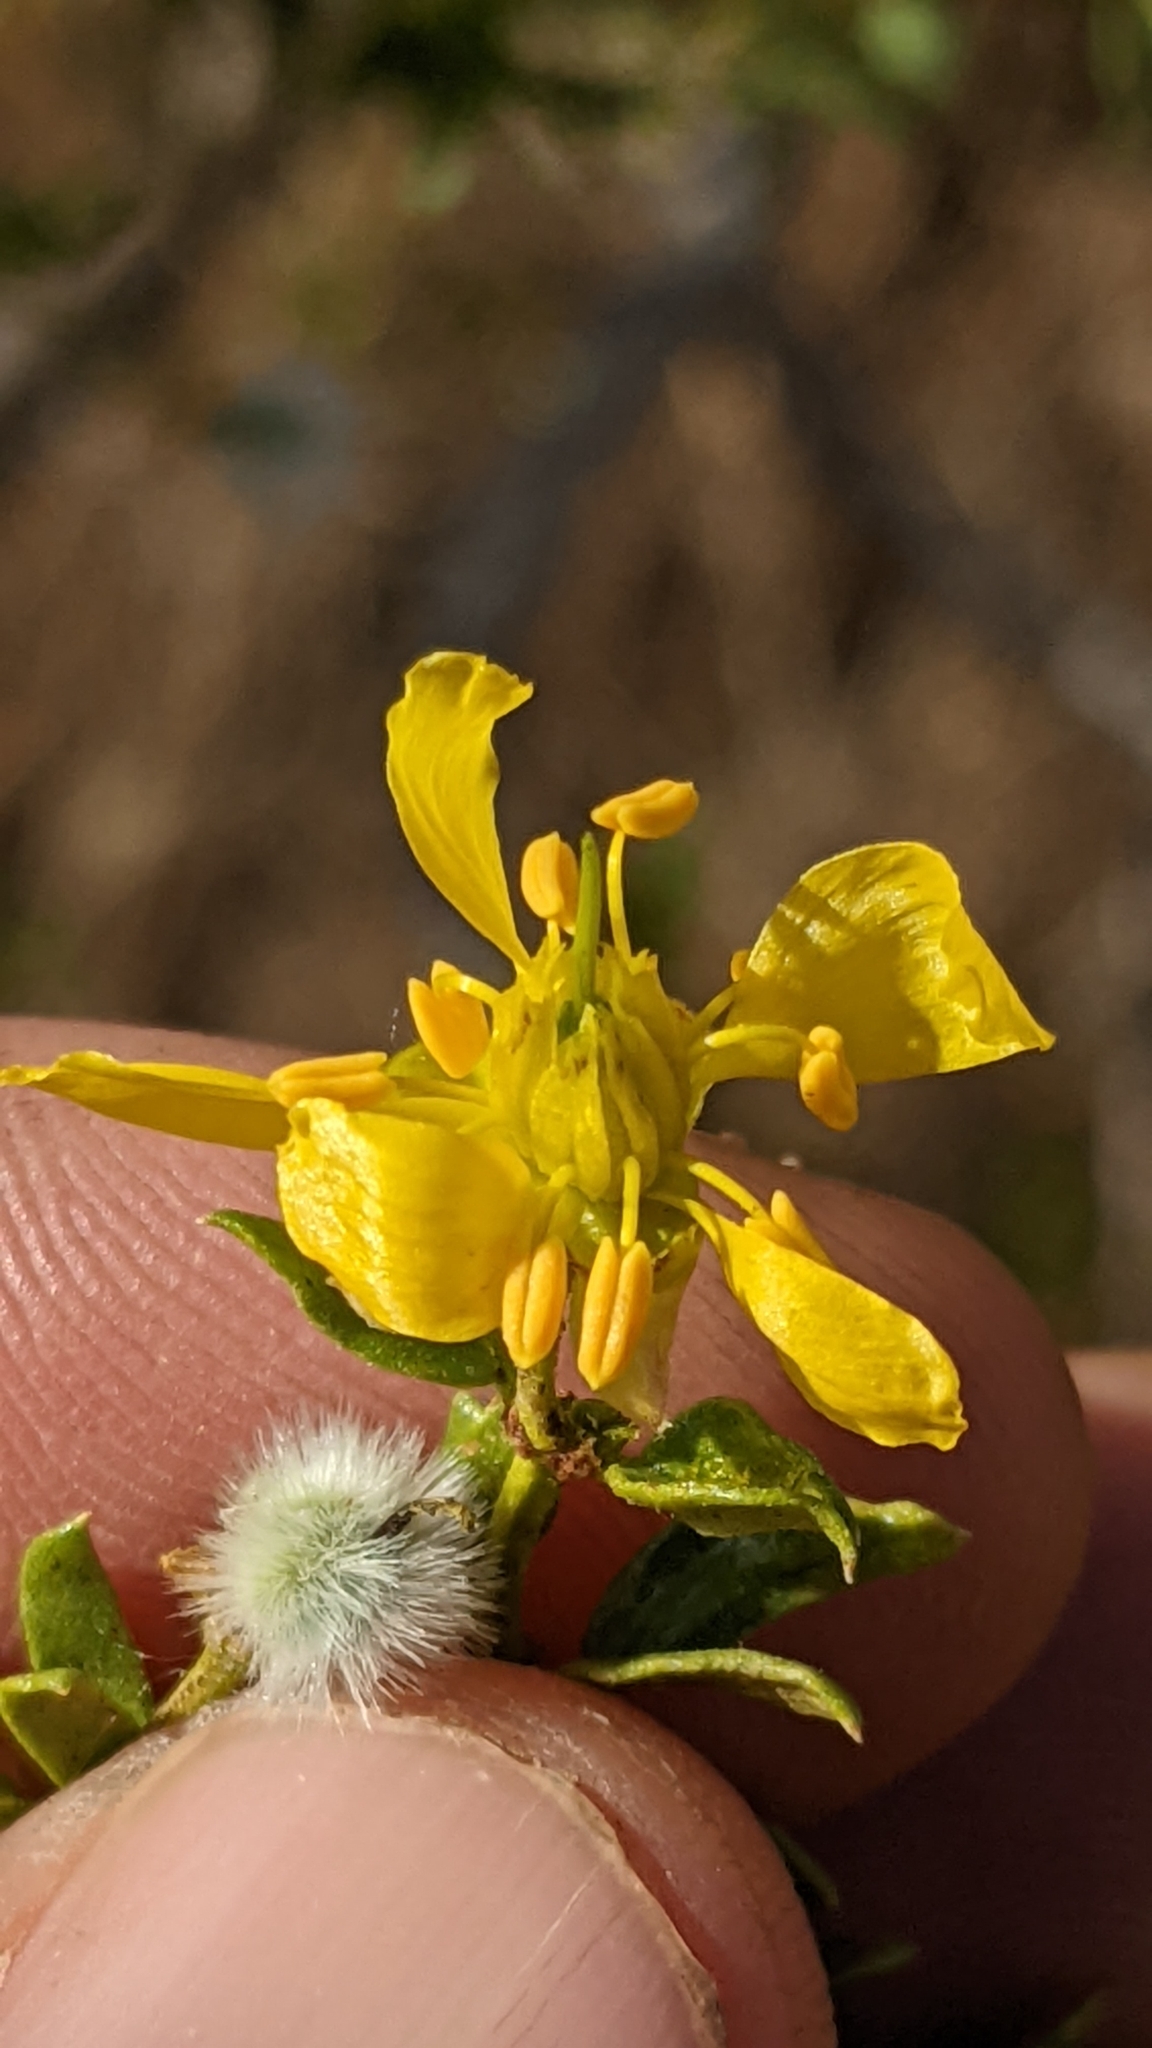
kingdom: Plantae
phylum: Tracheophyta
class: Magnoliopsida
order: Zygophyllales
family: Zygophyllaceae
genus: Larrea
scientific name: Larrea tridentata
